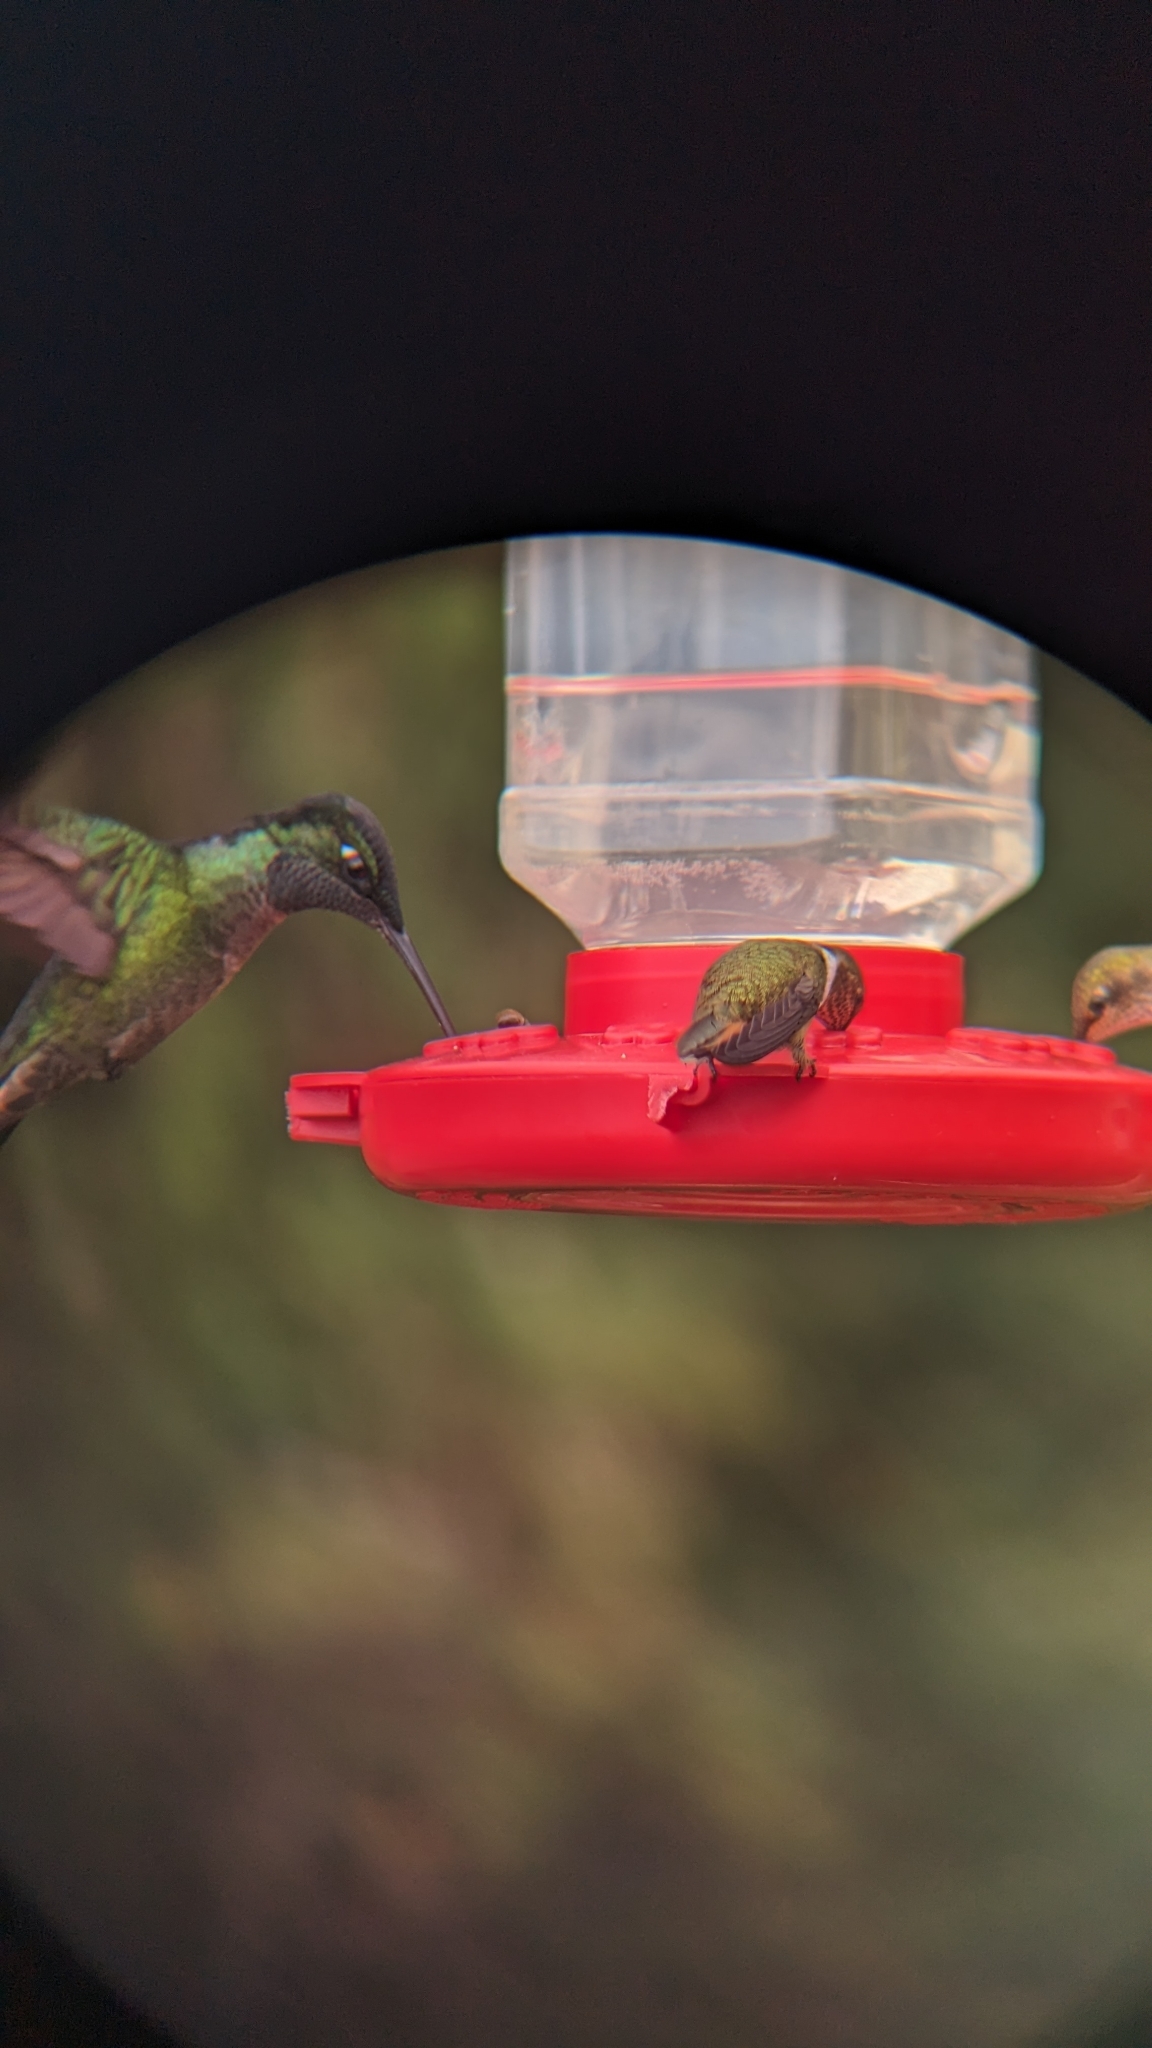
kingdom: Animalia
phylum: Chordata
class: Aves
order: Apodiformes
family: Trochilidae
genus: Eugenes
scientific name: Eugenes spectabilis
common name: Talamanca hummingbird
